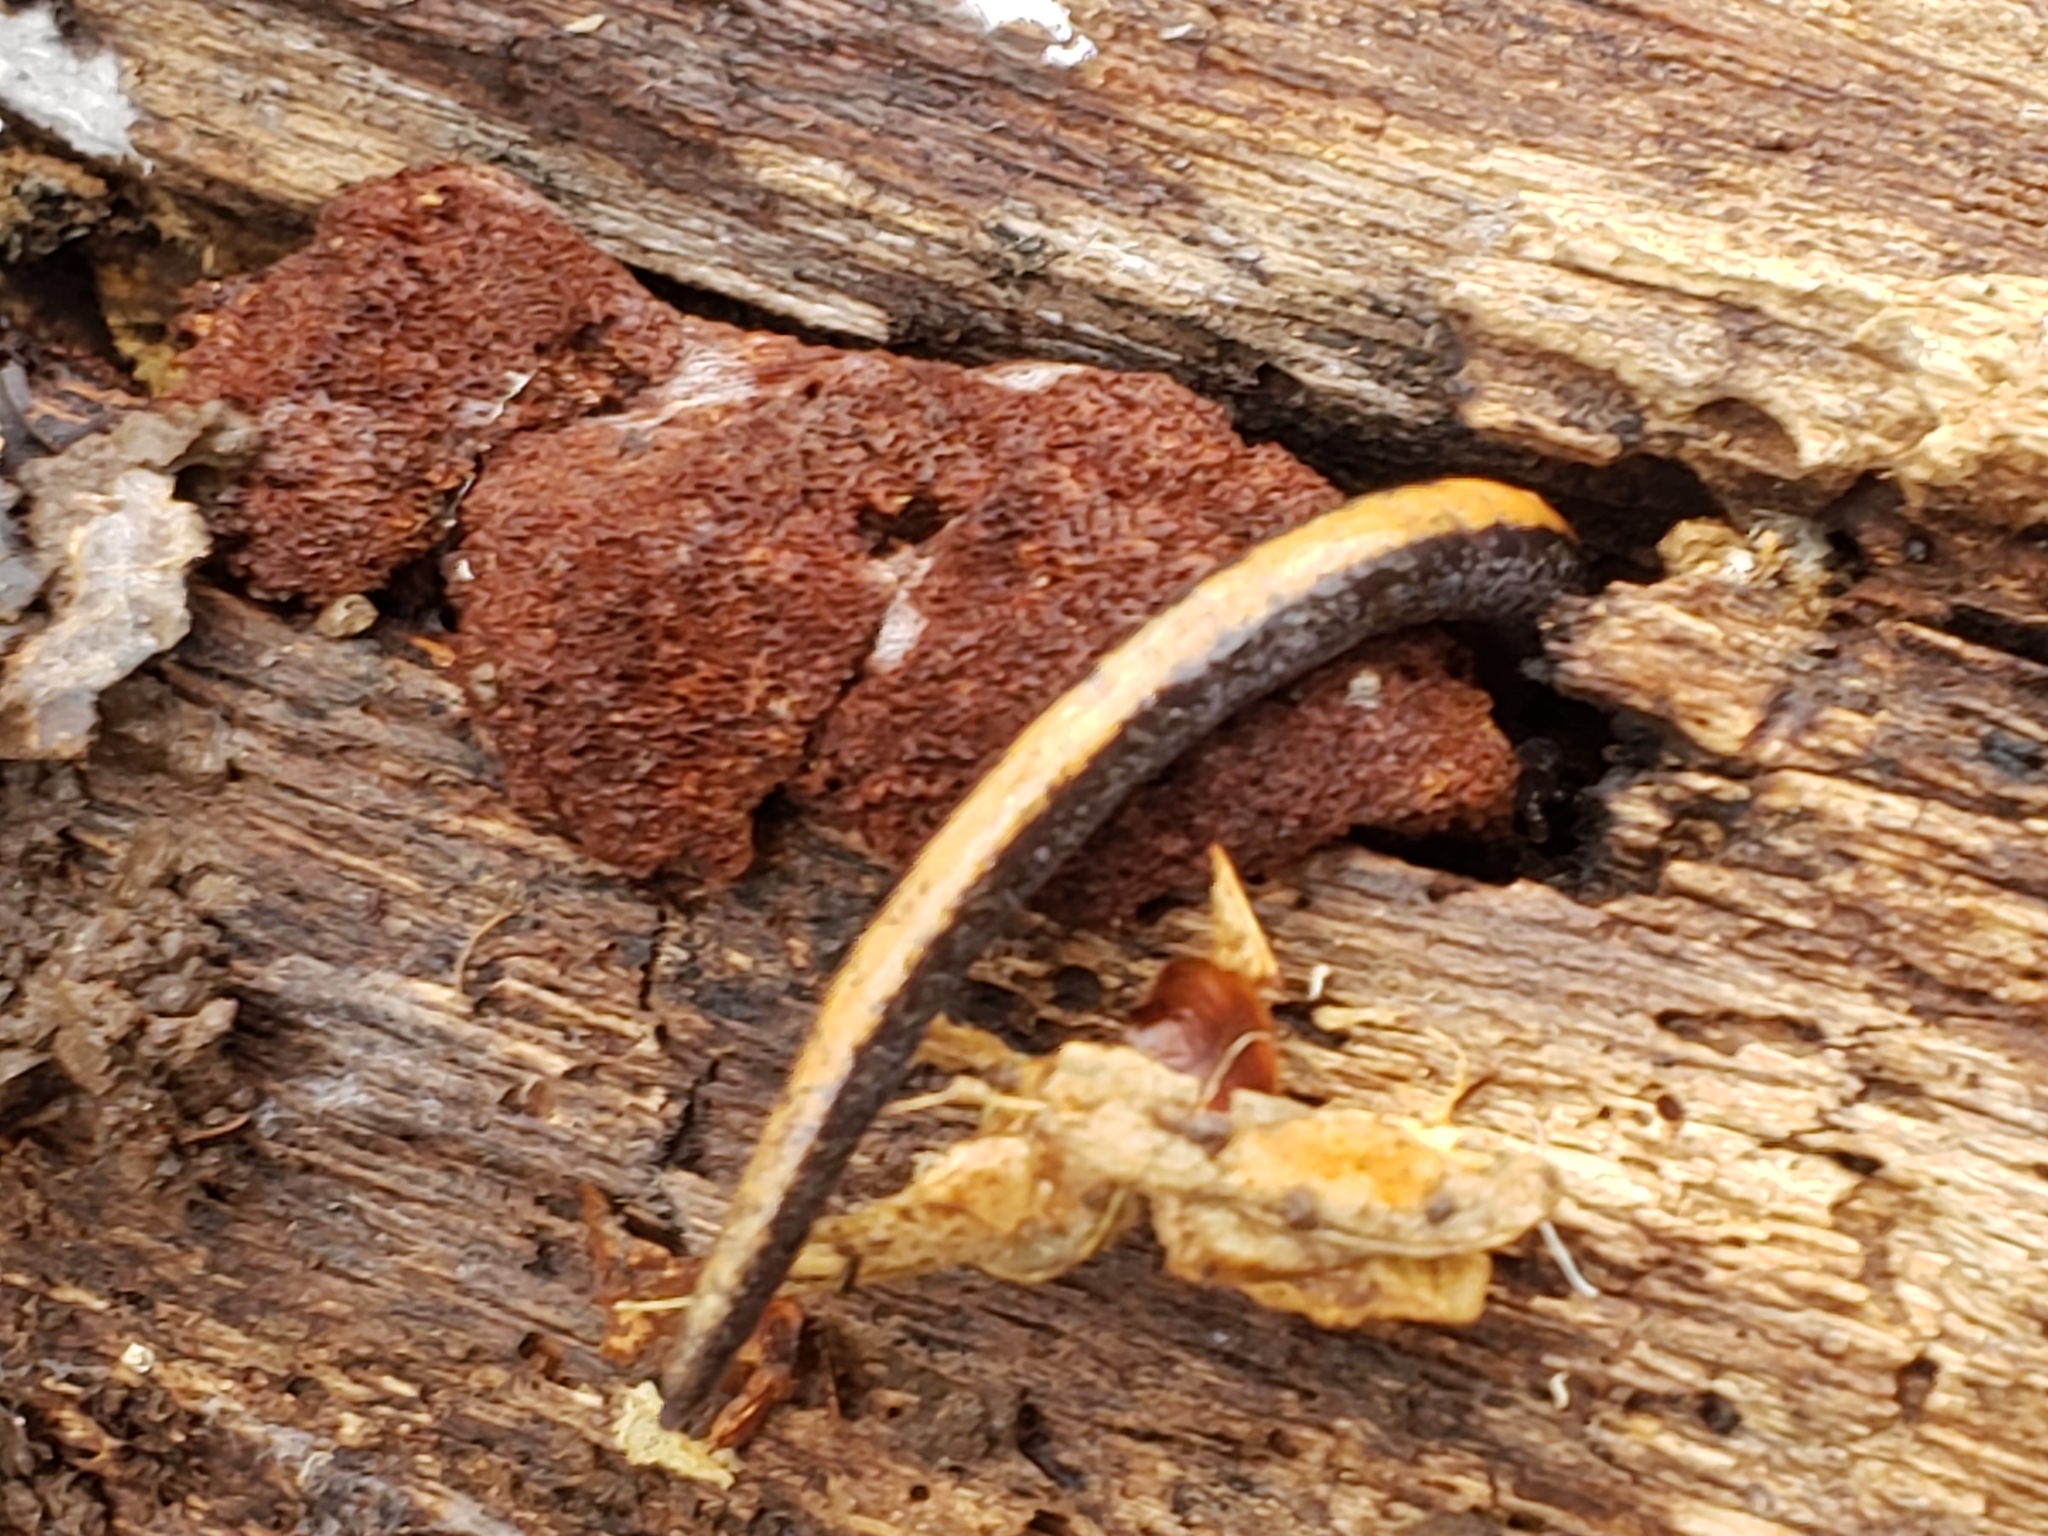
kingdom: Animalia
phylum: Chordata
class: Amphibia
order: Caudata
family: Plethodontidae
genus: Plethodon
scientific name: Plethodon cinereus
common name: Redback salamander
